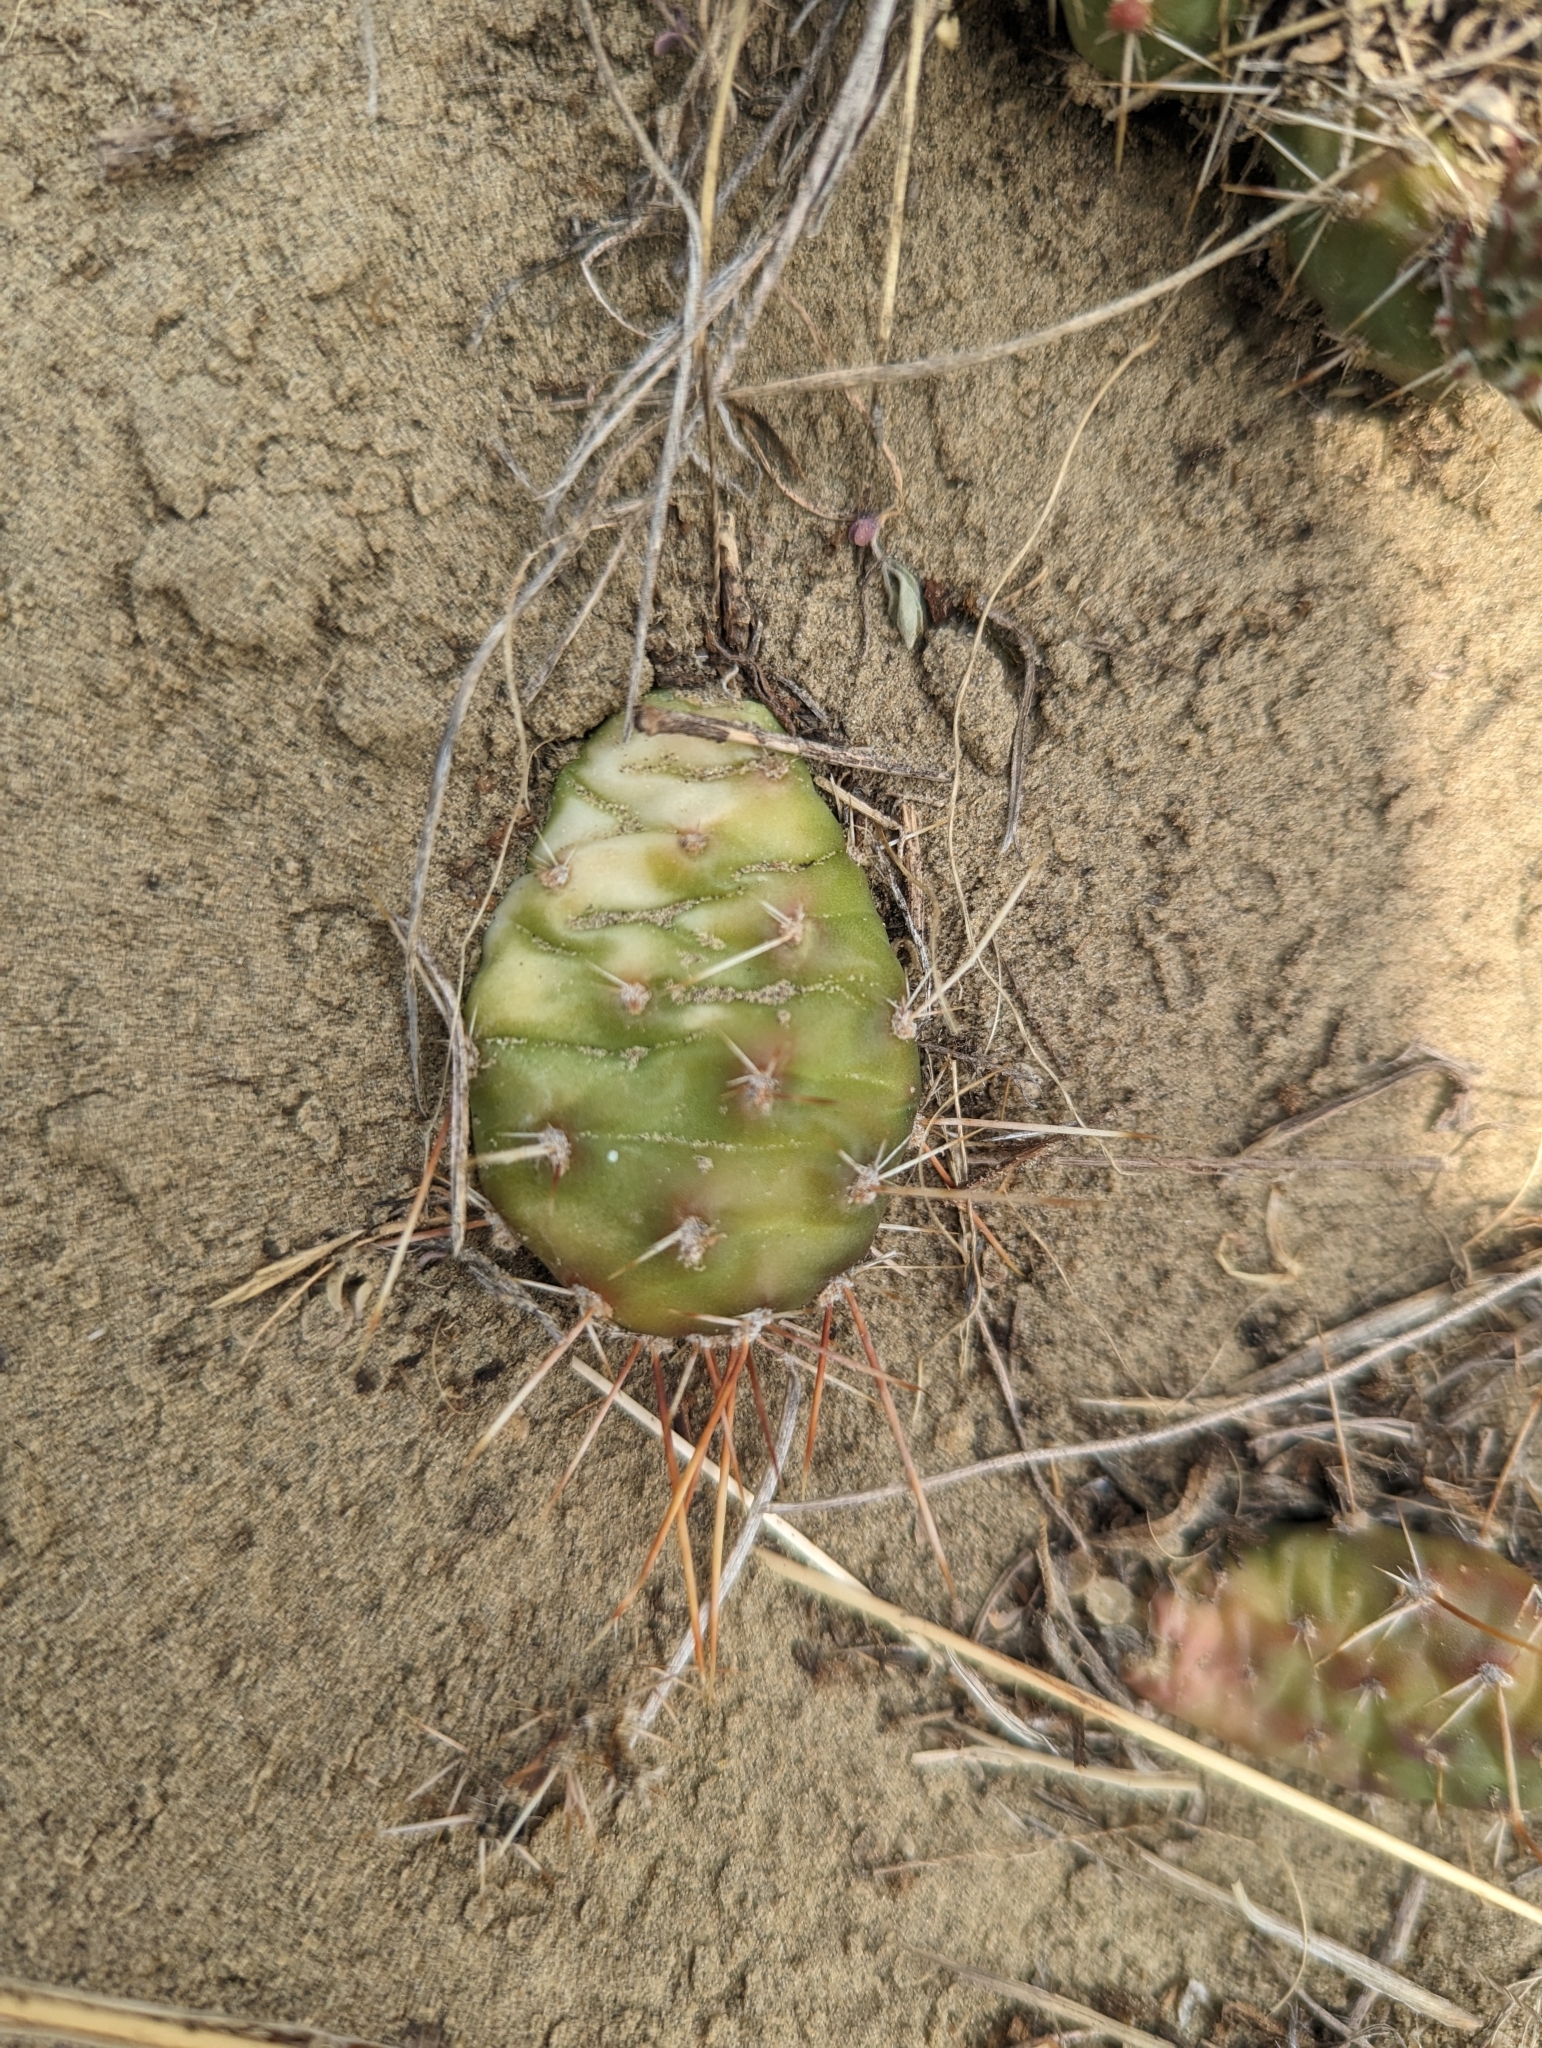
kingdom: Plantae
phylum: Tracheophyta
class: Magnoliopsida
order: Caryophyllales
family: Cactaceae
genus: Opuntia
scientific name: Opuntia fragilis
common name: Brittle cactus
